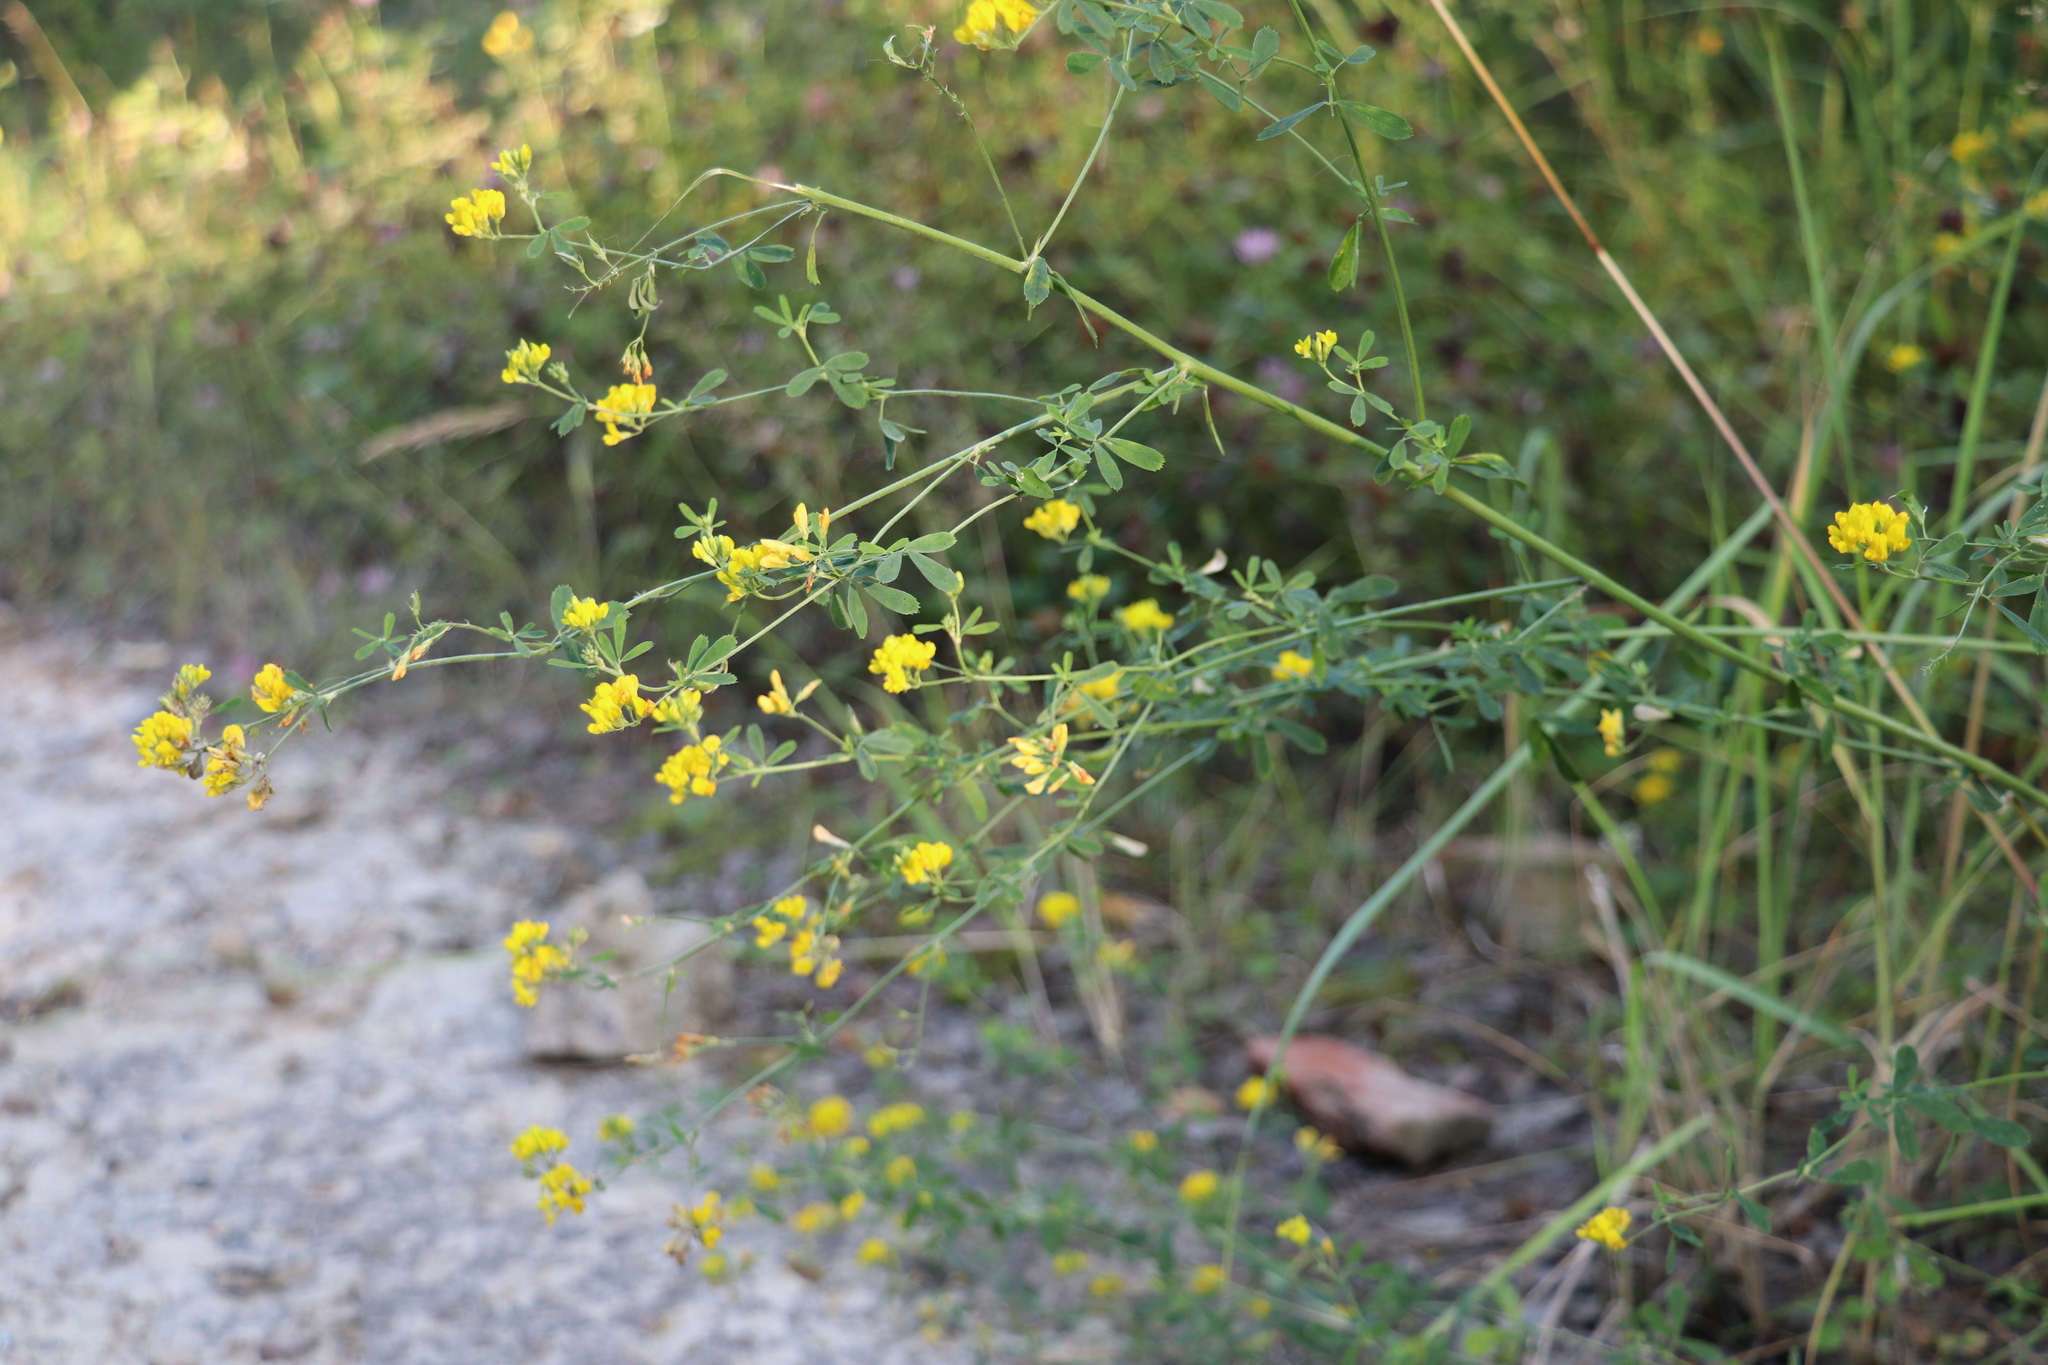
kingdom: Plantae
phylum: Tracheophyta
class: Magnoliopsida
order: Fabales
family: Fabaceae
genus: Medicago
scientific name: Medicago falcata
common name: Sickle medick
